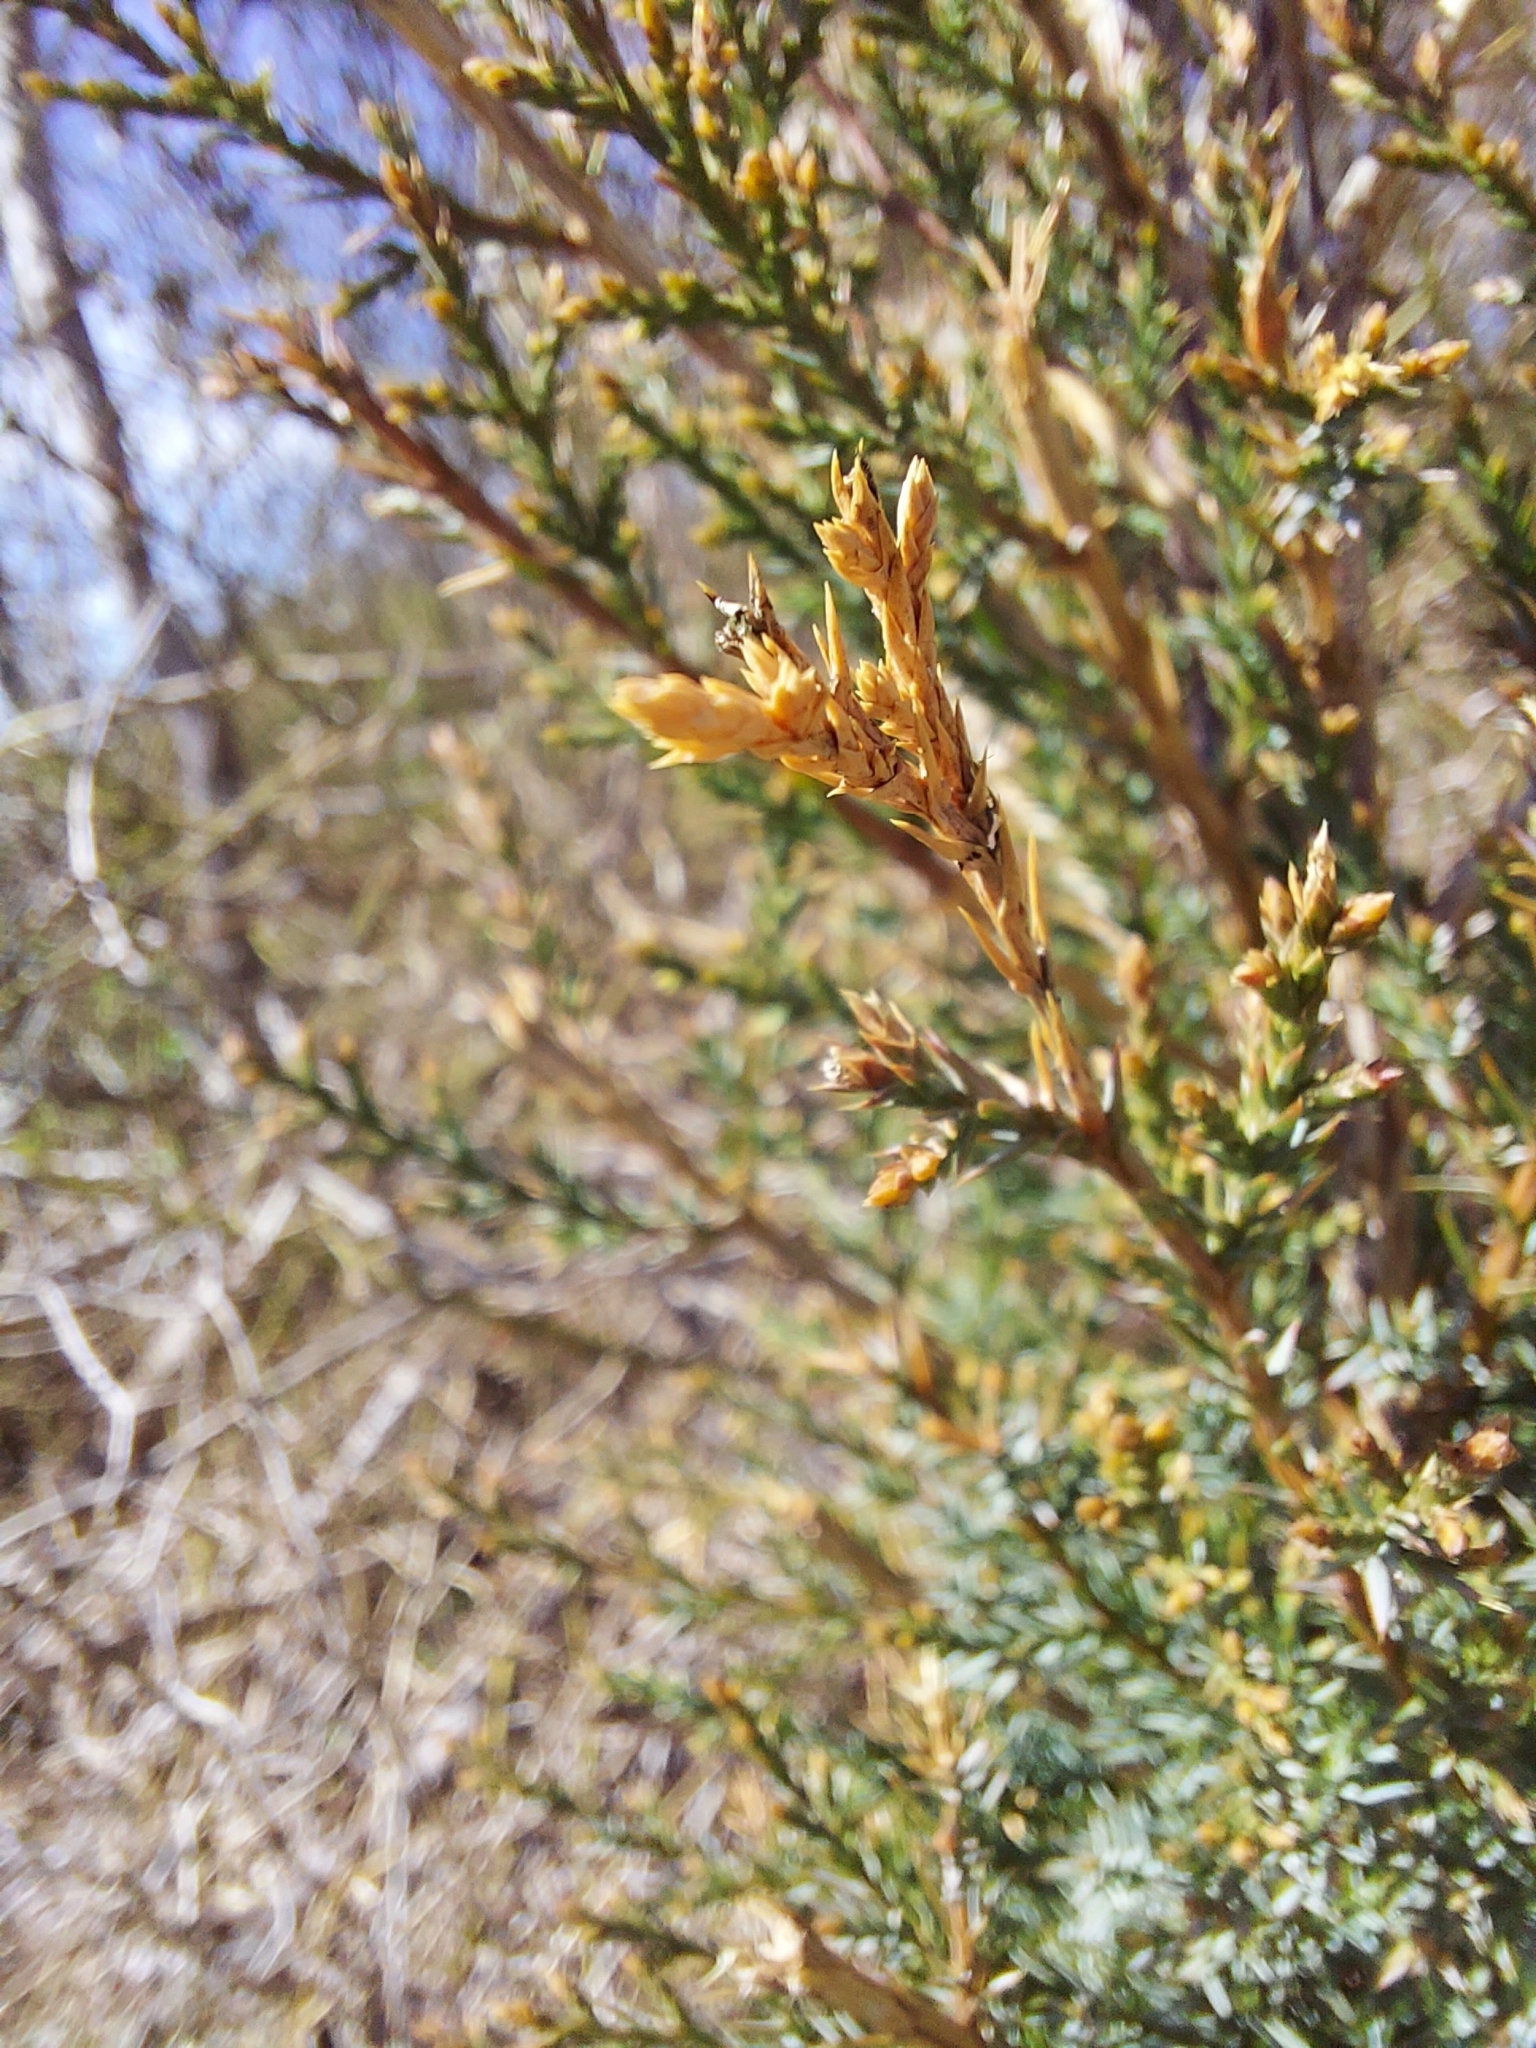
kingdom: Plantae
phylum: Tracheophyta
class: Pinopsida
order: Pinales
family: Cupressaceae
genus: Juniperus
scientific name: Juniperus virginiana
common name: Red juniper
